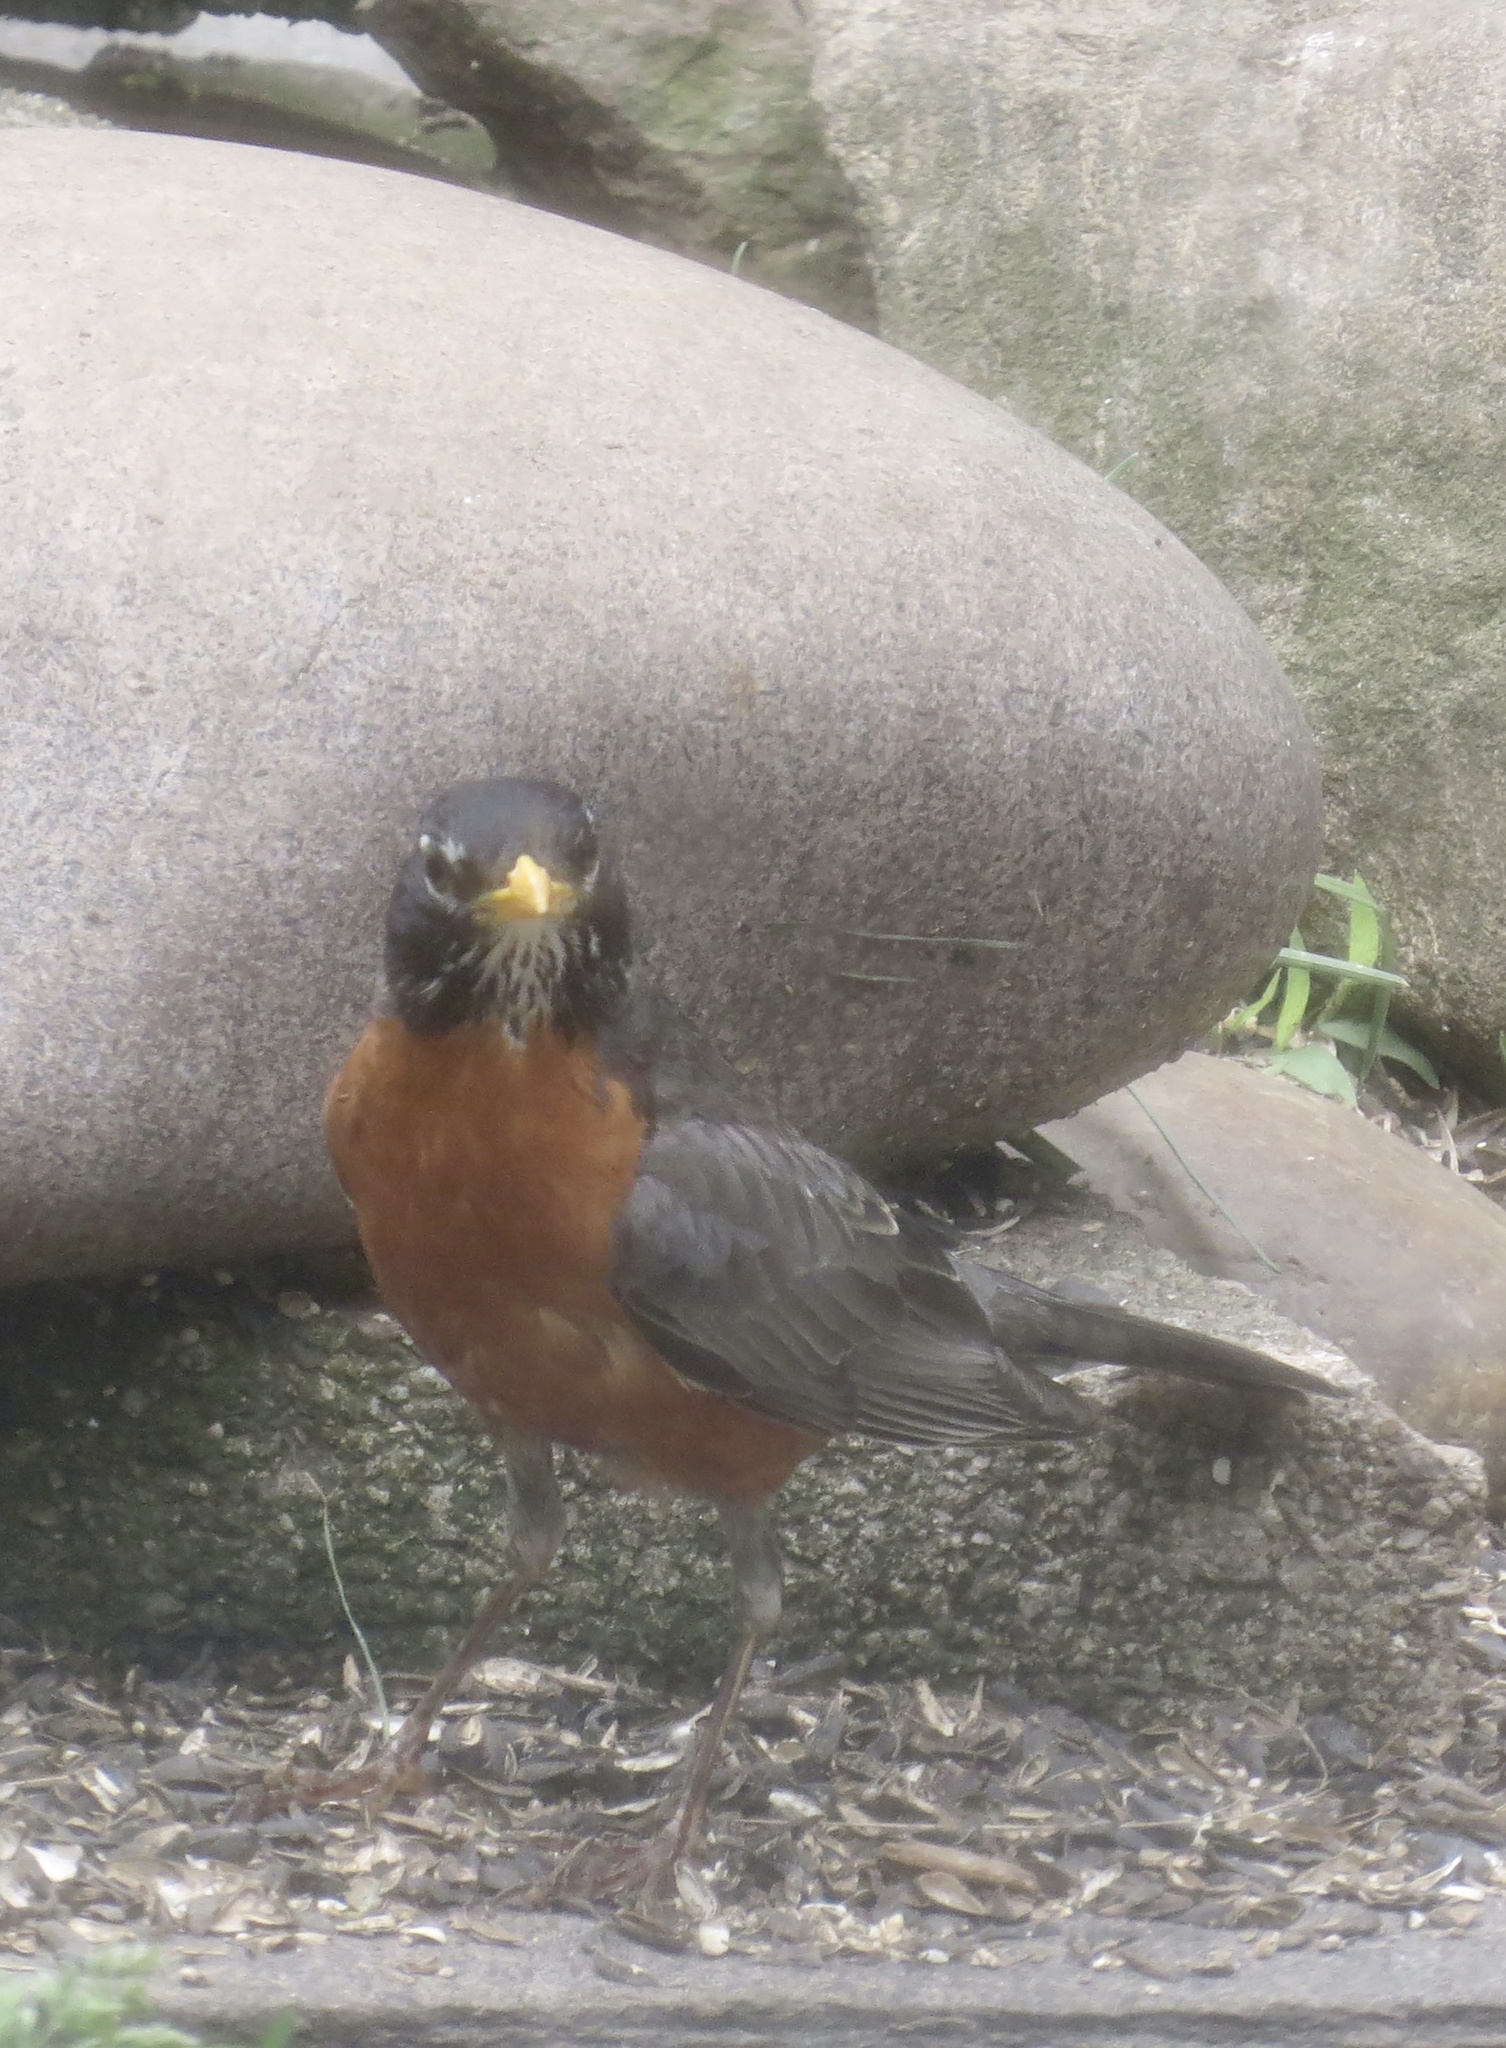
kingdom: Animalia
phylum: Chordata
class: Aves
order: Passeriformes
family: Turdidae
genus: Turdus
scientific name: Turdus migratorius
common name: American robin
